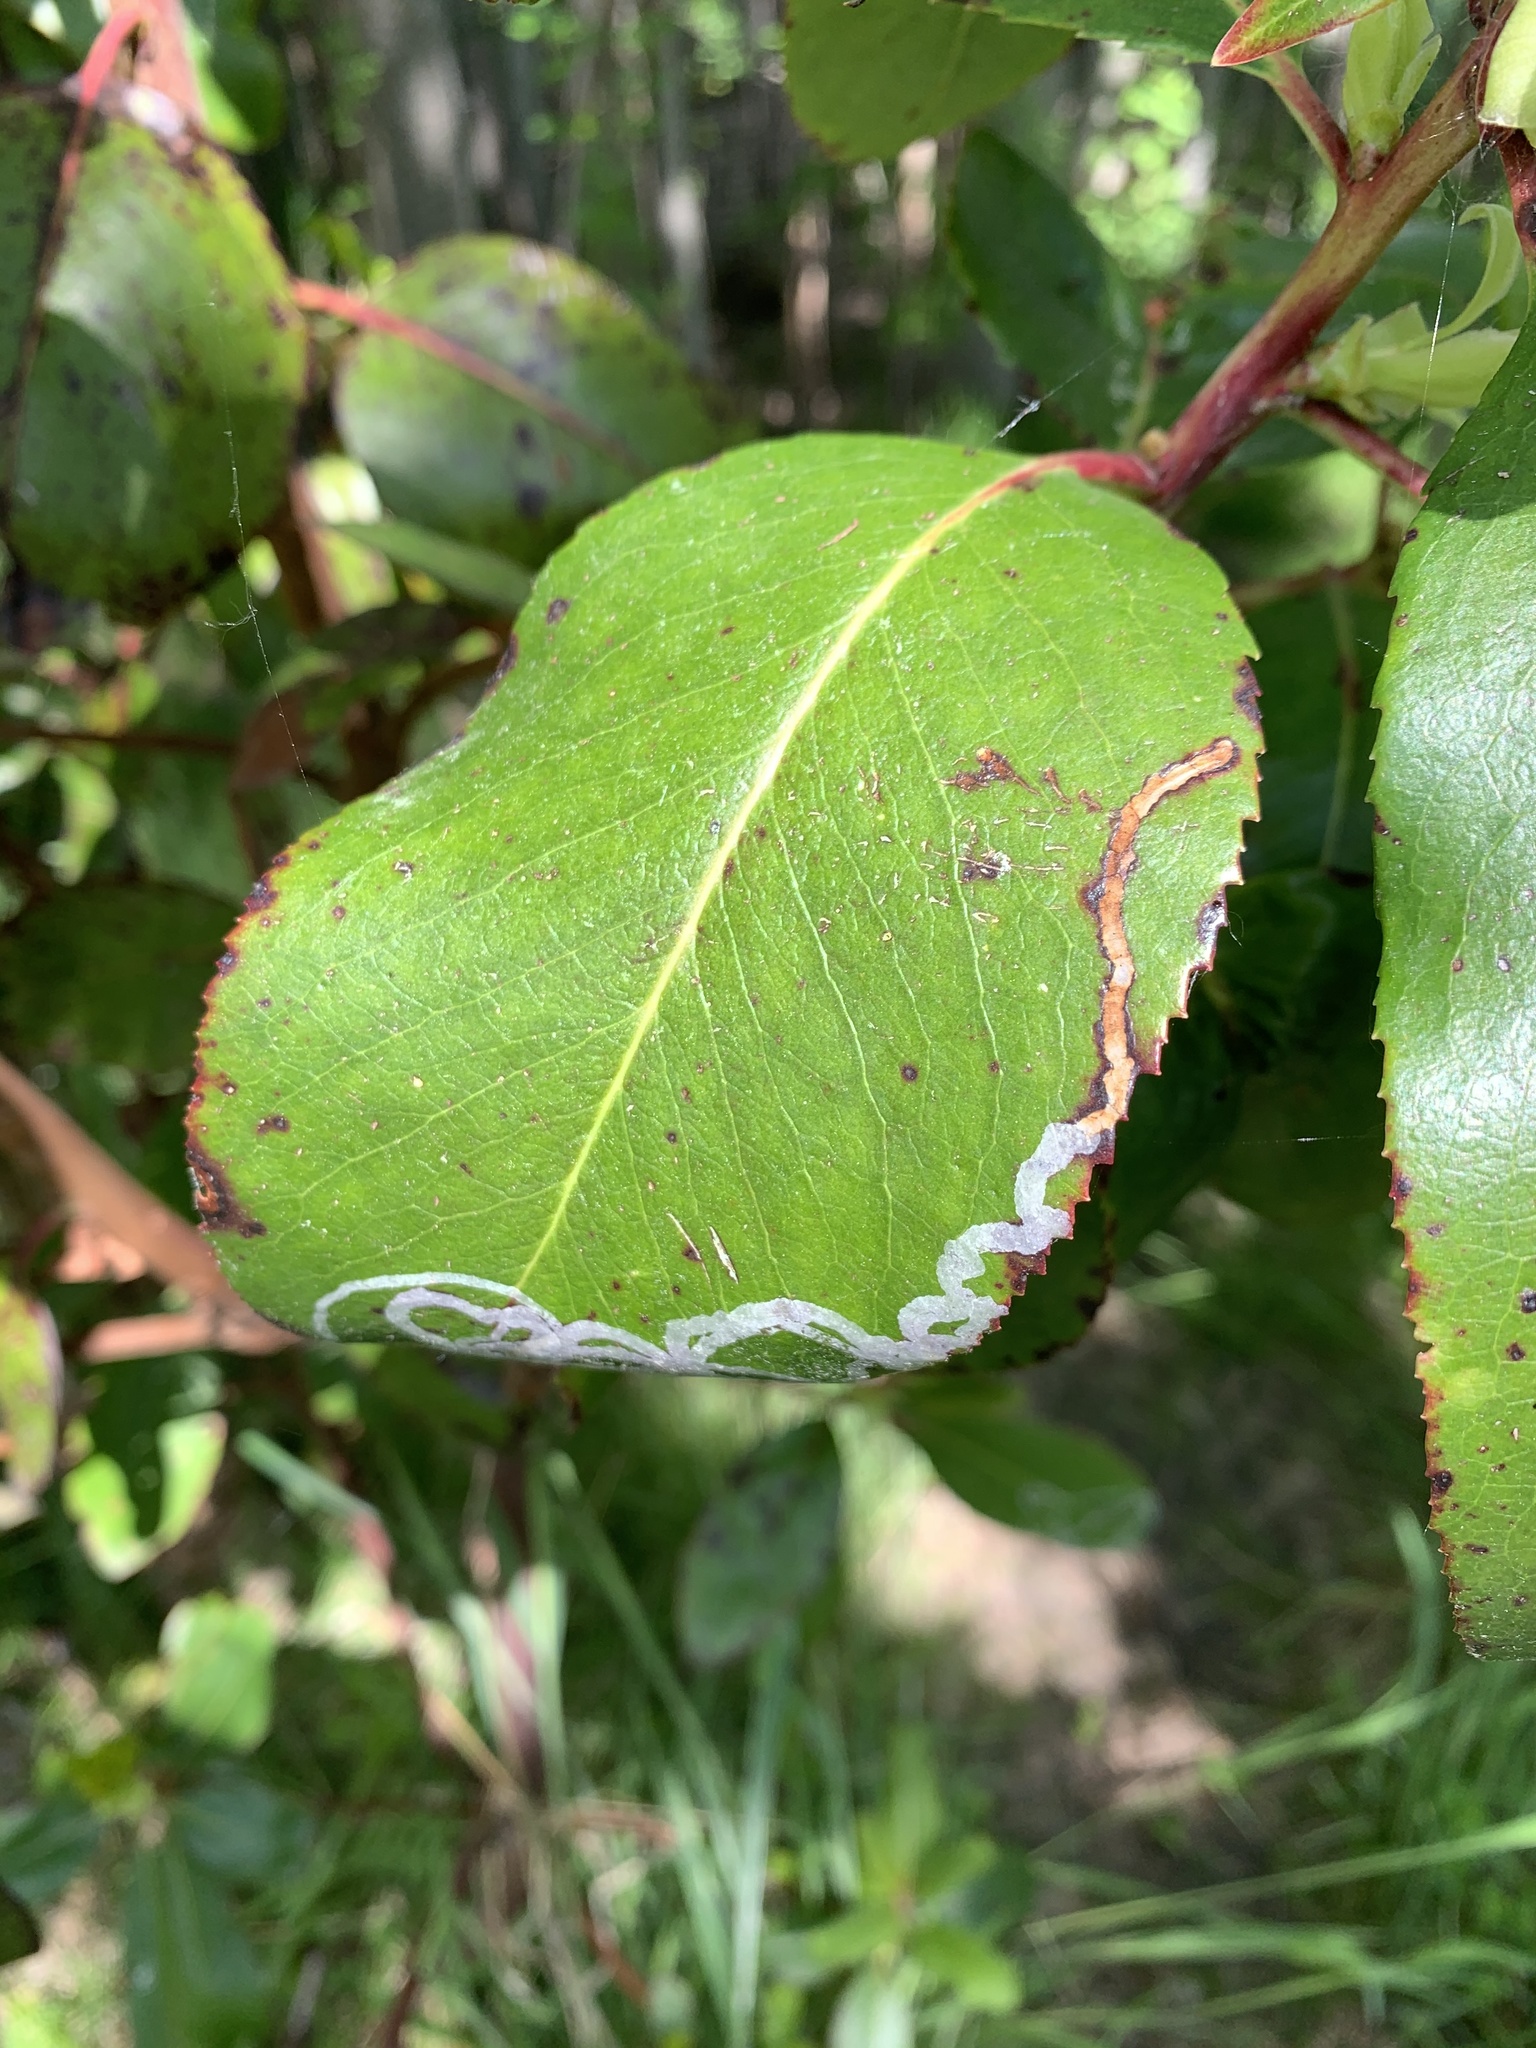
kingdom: Animalia
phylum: Arthropoda
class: Insecta
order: Lepidoptera
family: Gracillariidae
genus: Marmara
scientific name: Marmara arbutiella
